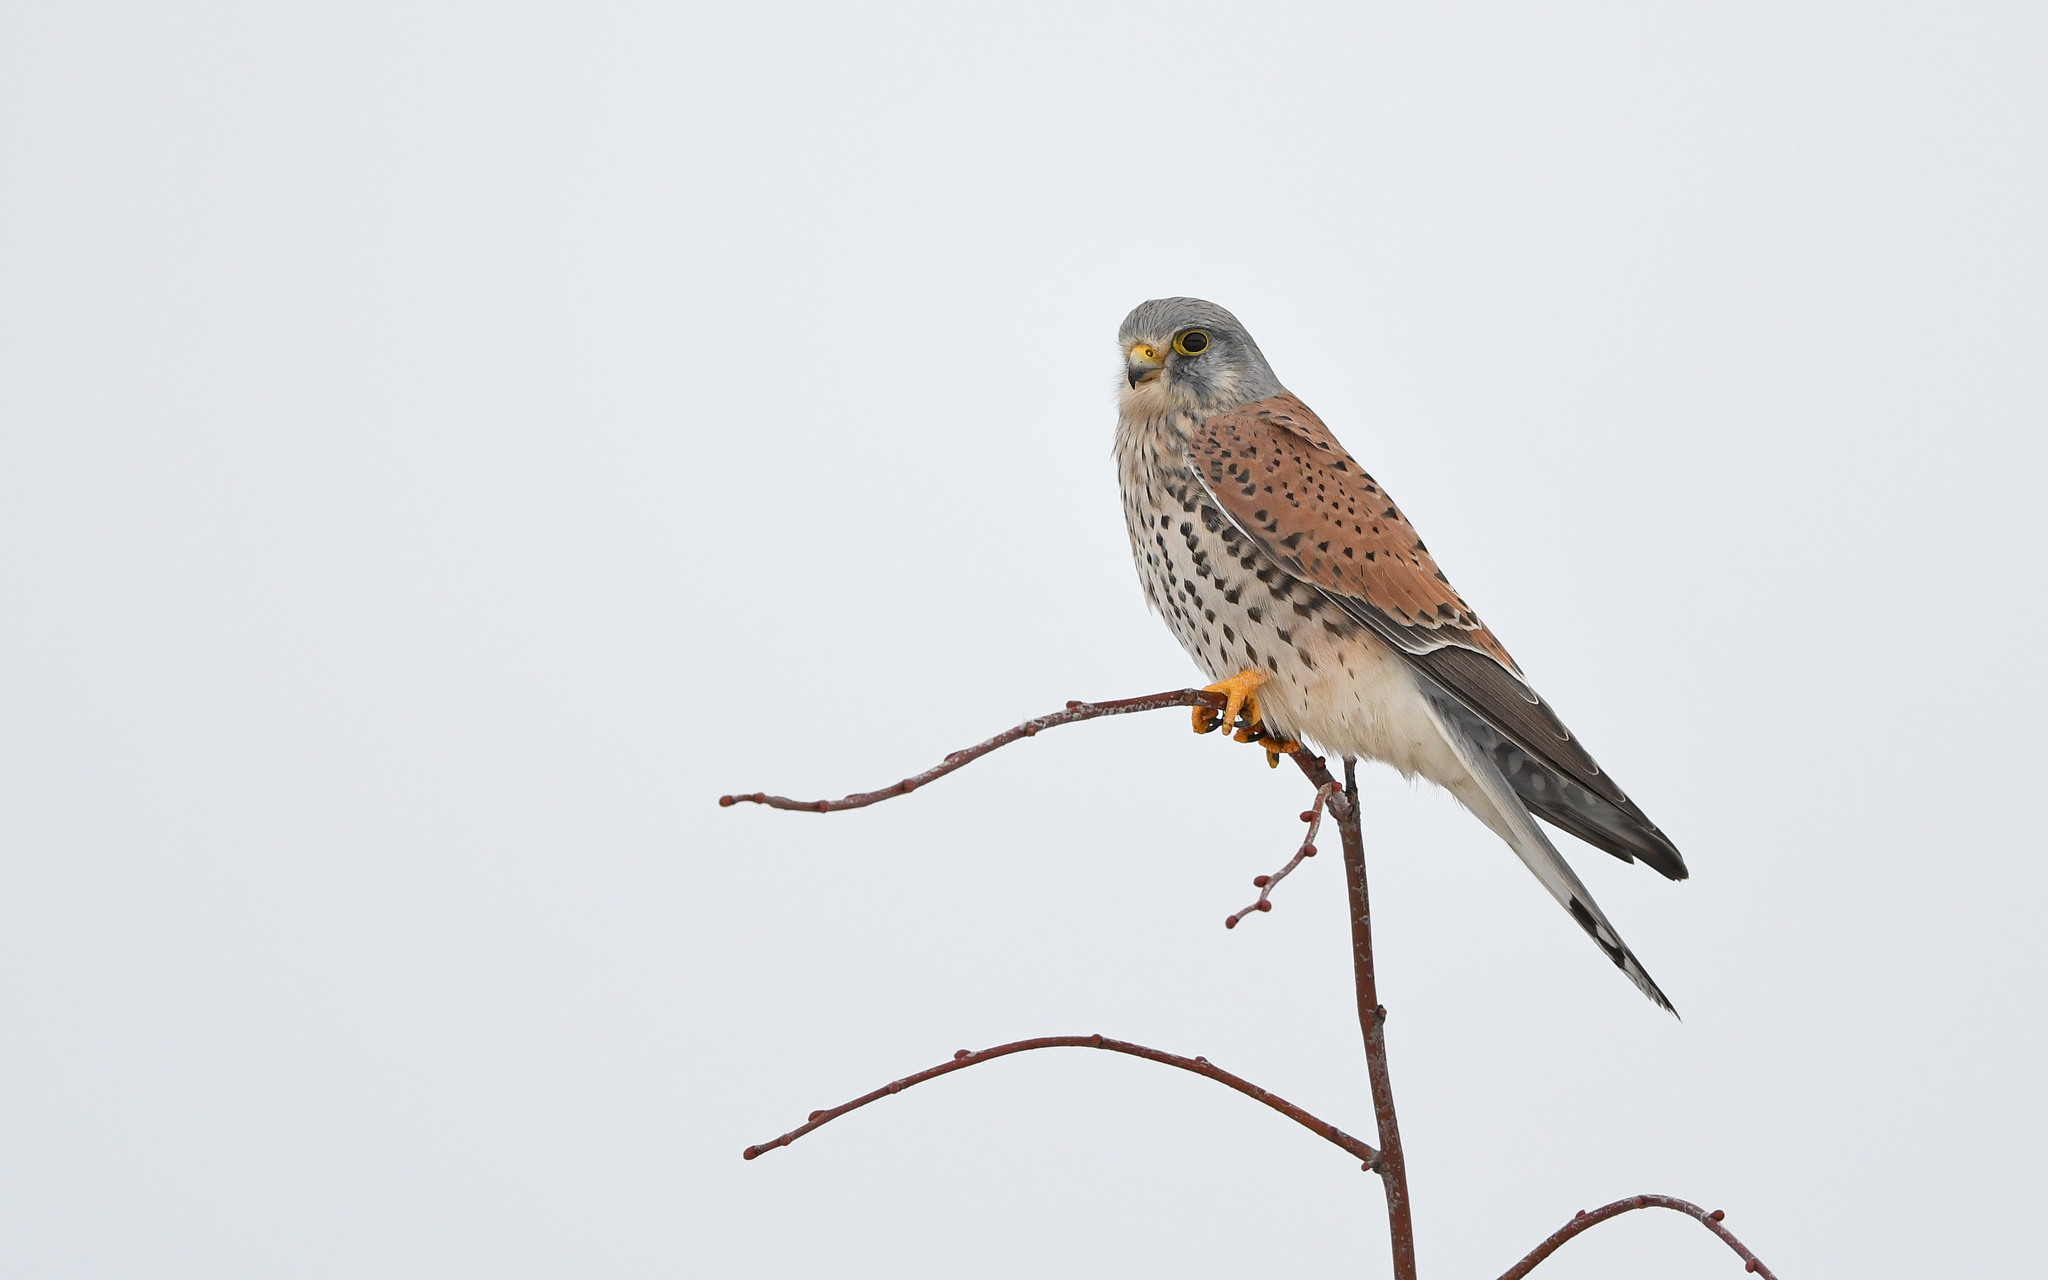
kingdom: Animalia
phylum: Chordata
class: Aves
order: Falconiformes
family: Falconidae
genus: Falco
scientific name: Falco tinnunculus
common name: Common kestrel
